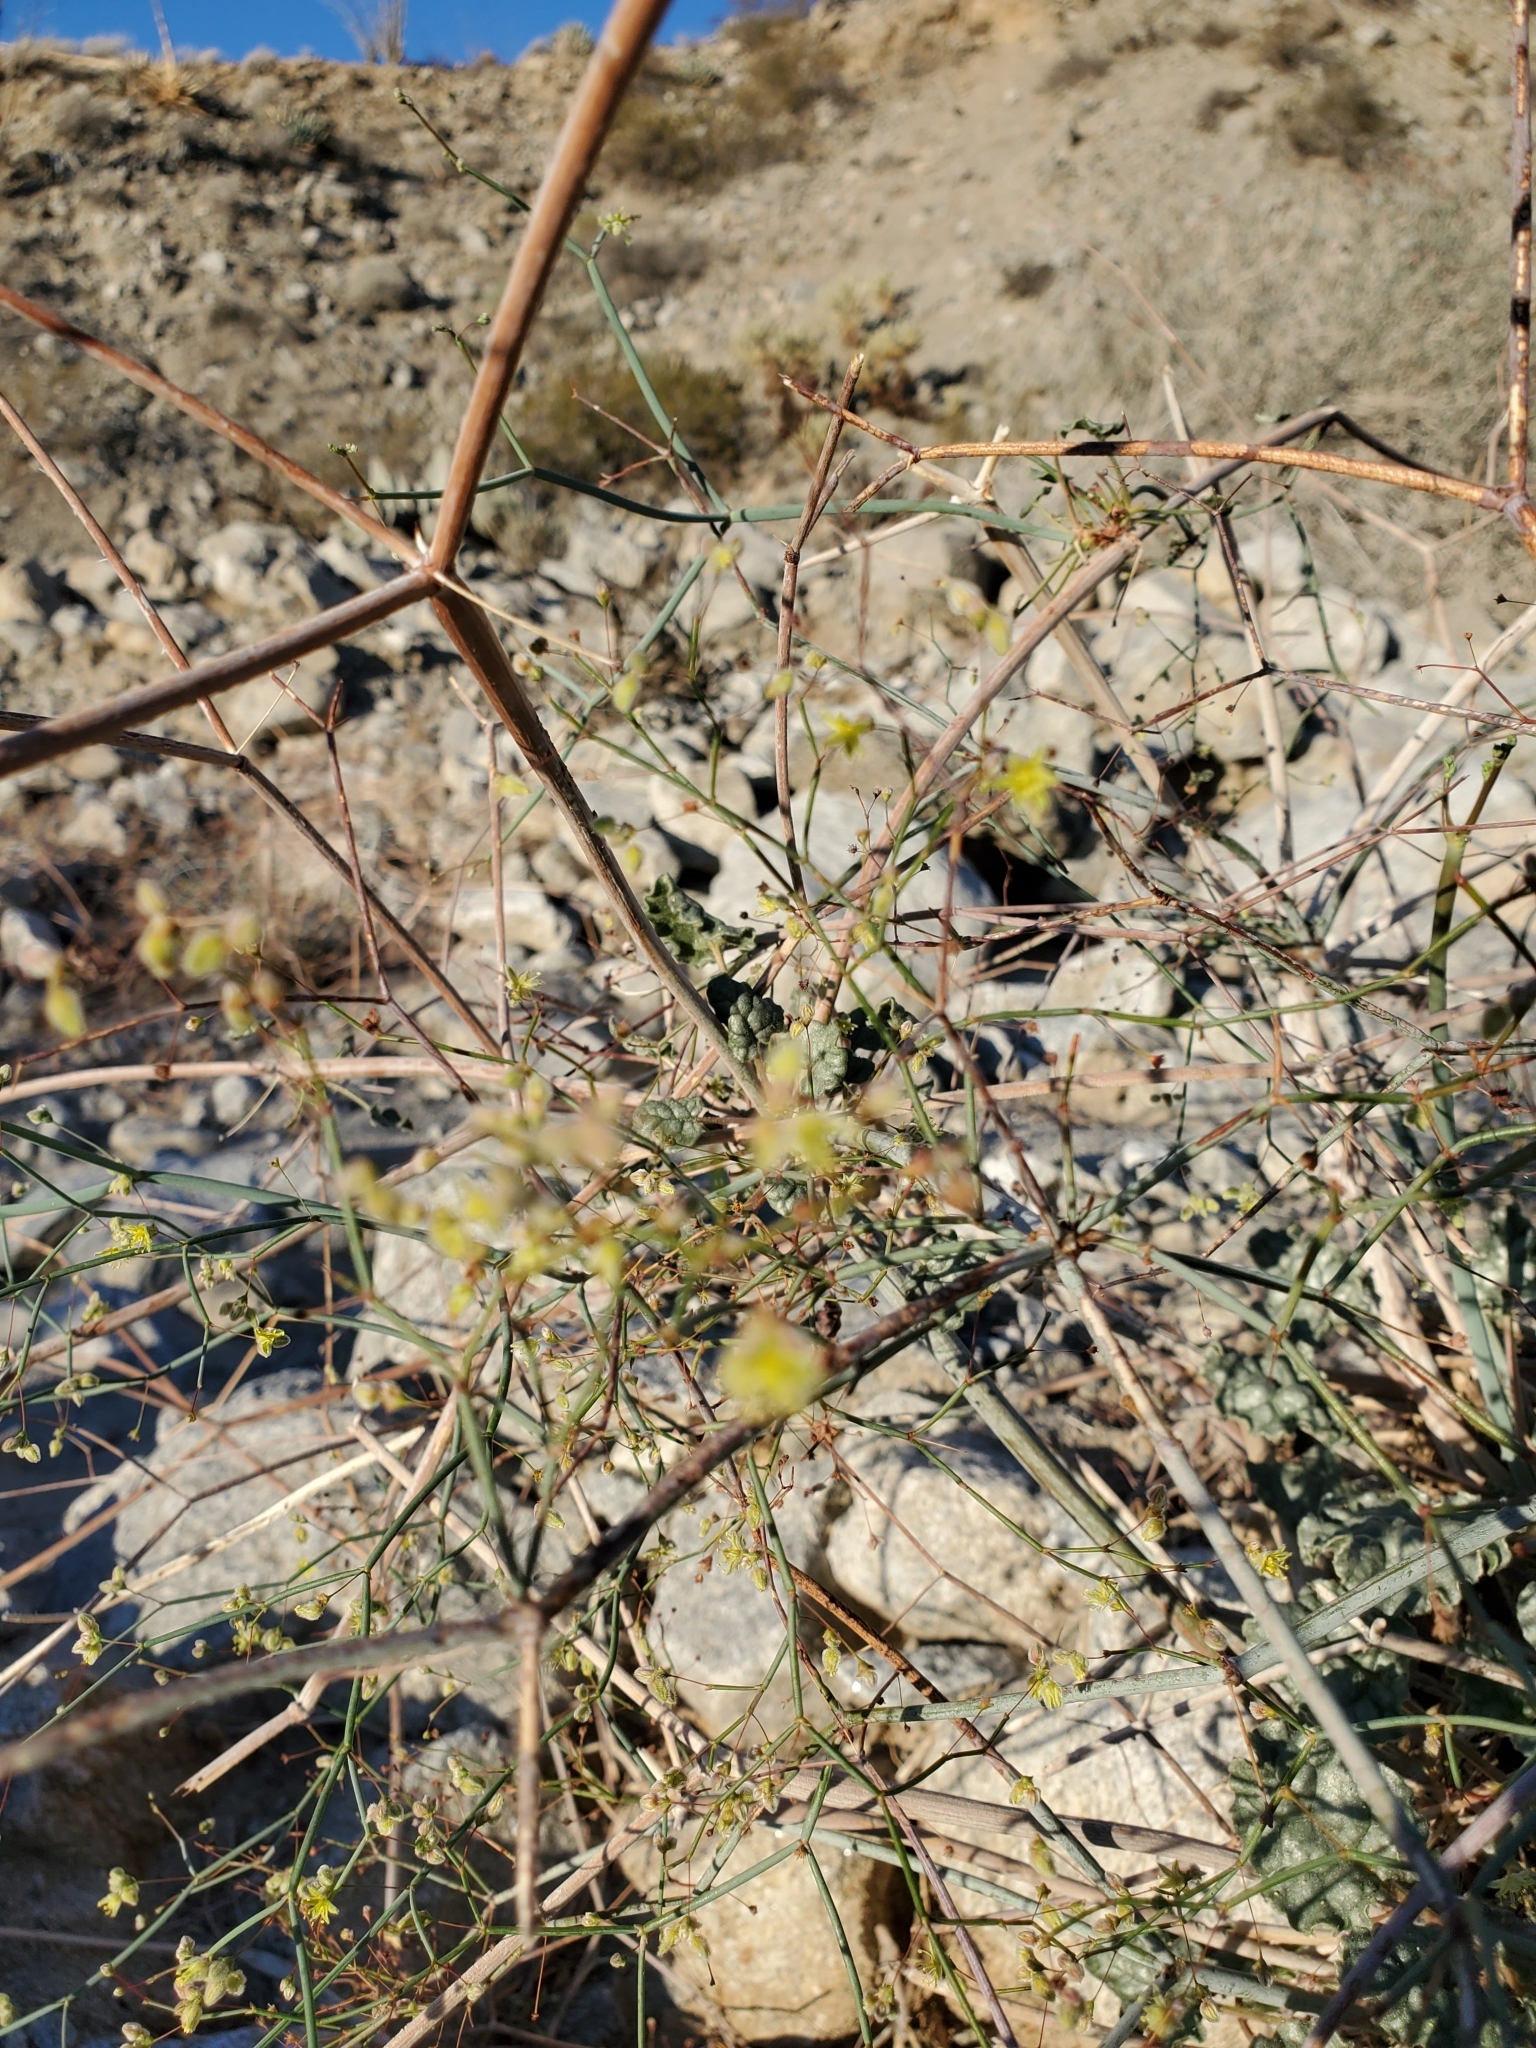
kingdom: Plantae
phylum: Tracheophyta
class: Magnoliopsida
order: Caryophyllales
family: Polygonaceae
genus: Eriogonum
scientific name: Eriogonum inflatum
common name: Desert trumpet
